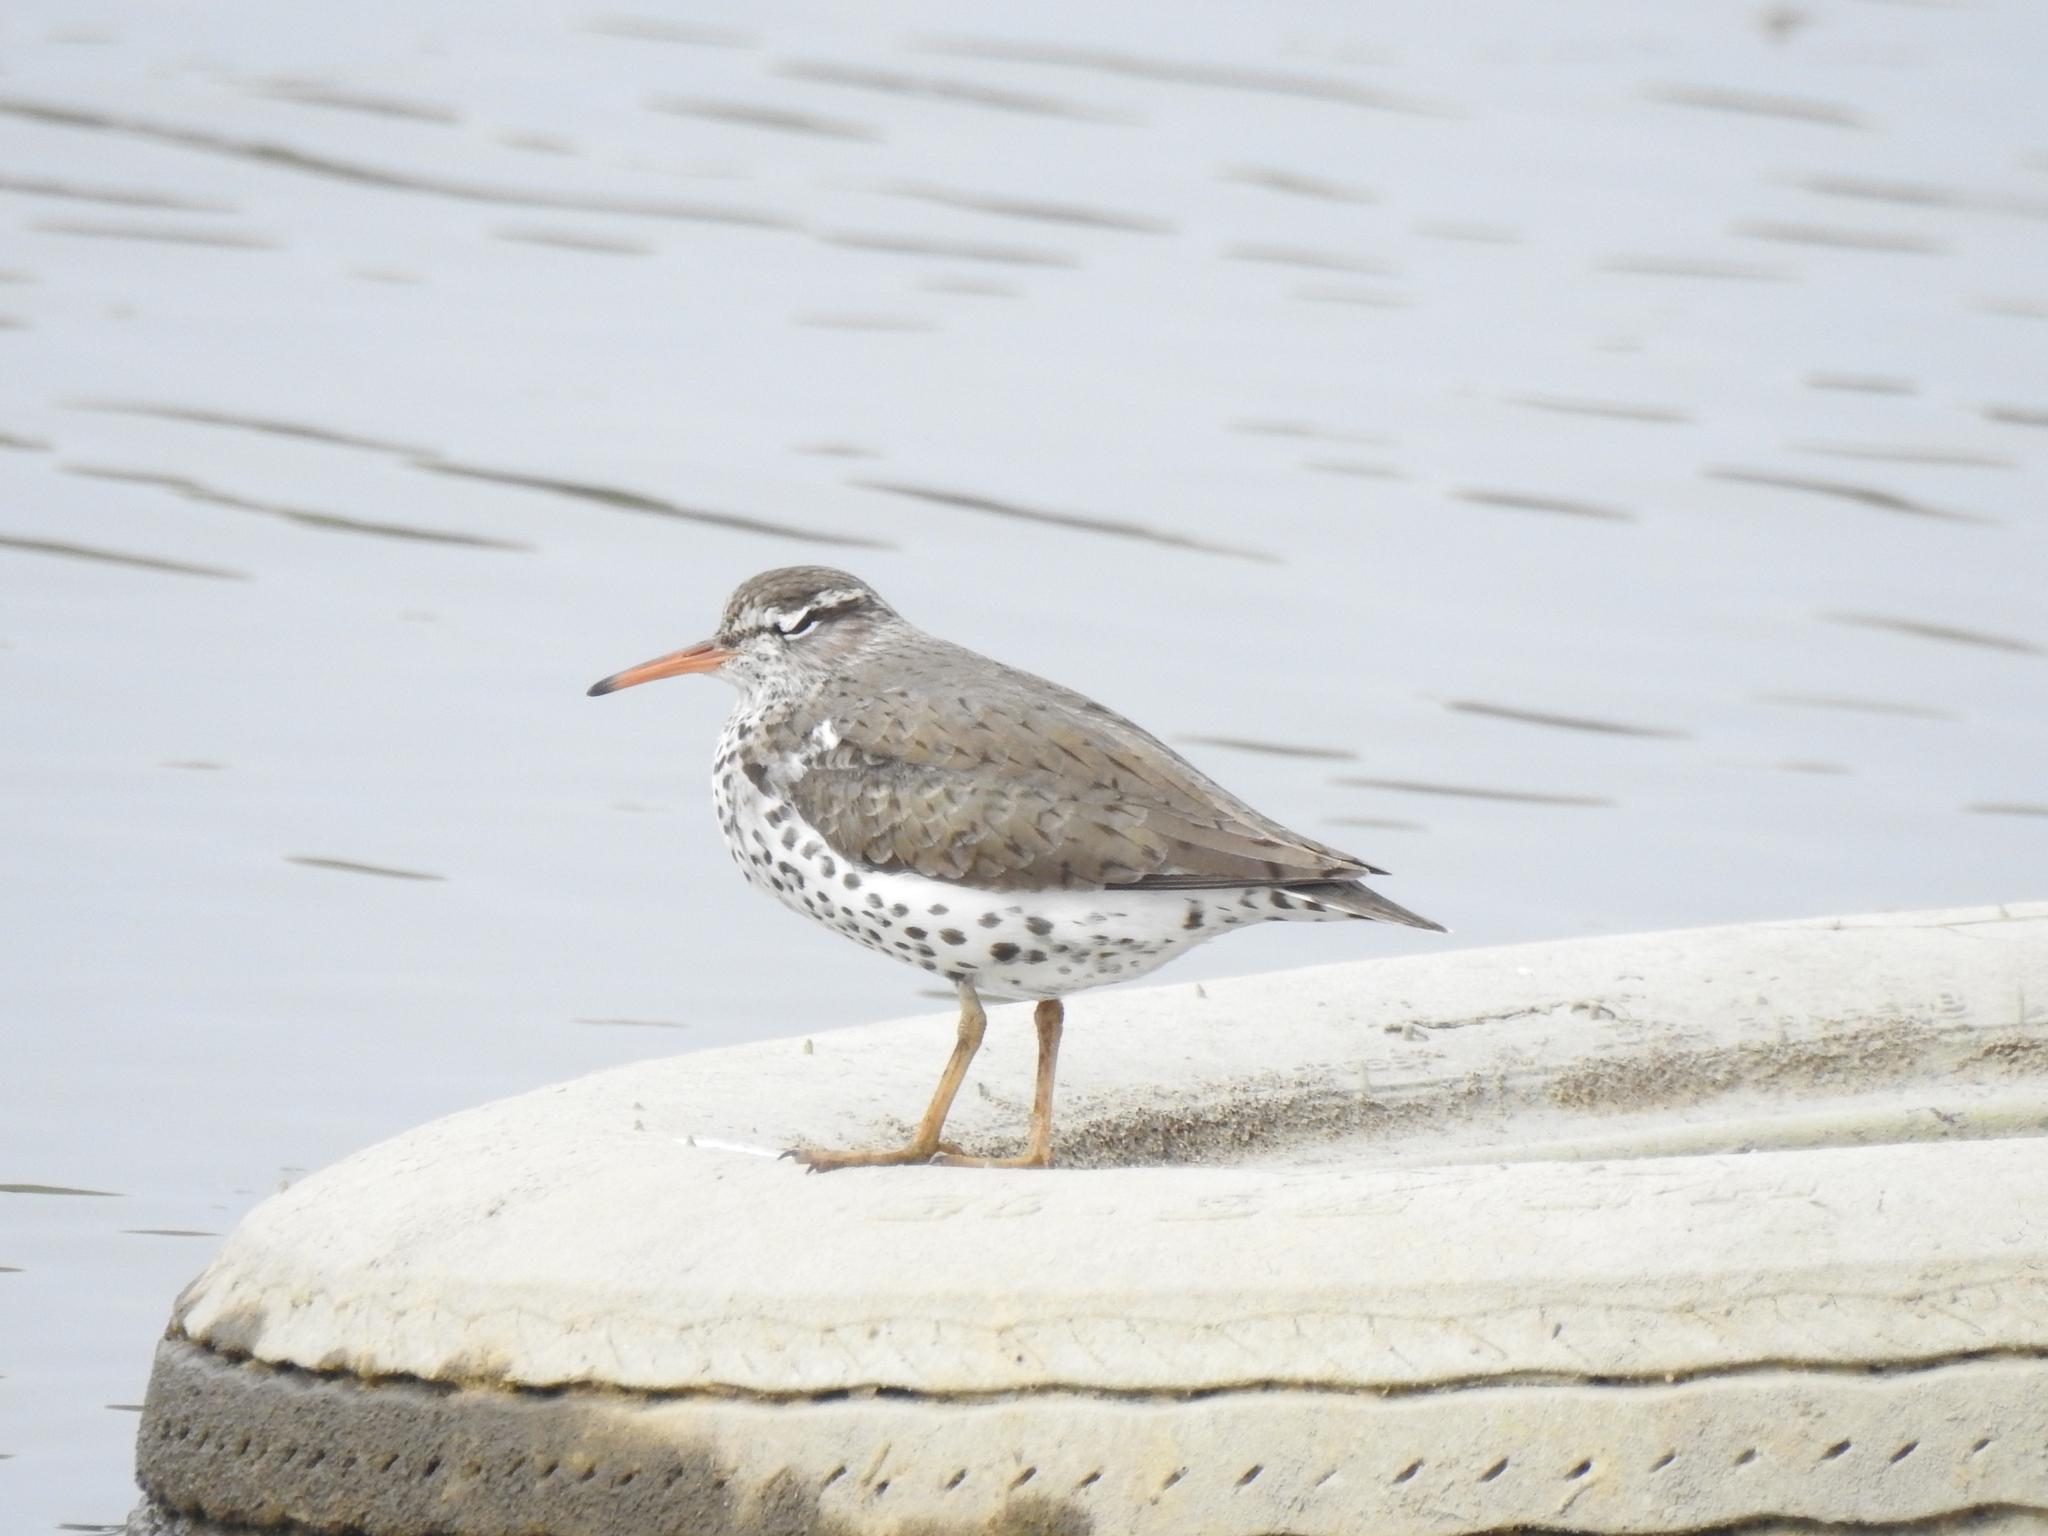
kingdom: Animalia
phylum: Chordata
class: Aves
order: Charadriiformes
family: Scolopacidae
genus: Actitis
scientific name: Actitis macularius
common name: Spotted sandpiper
